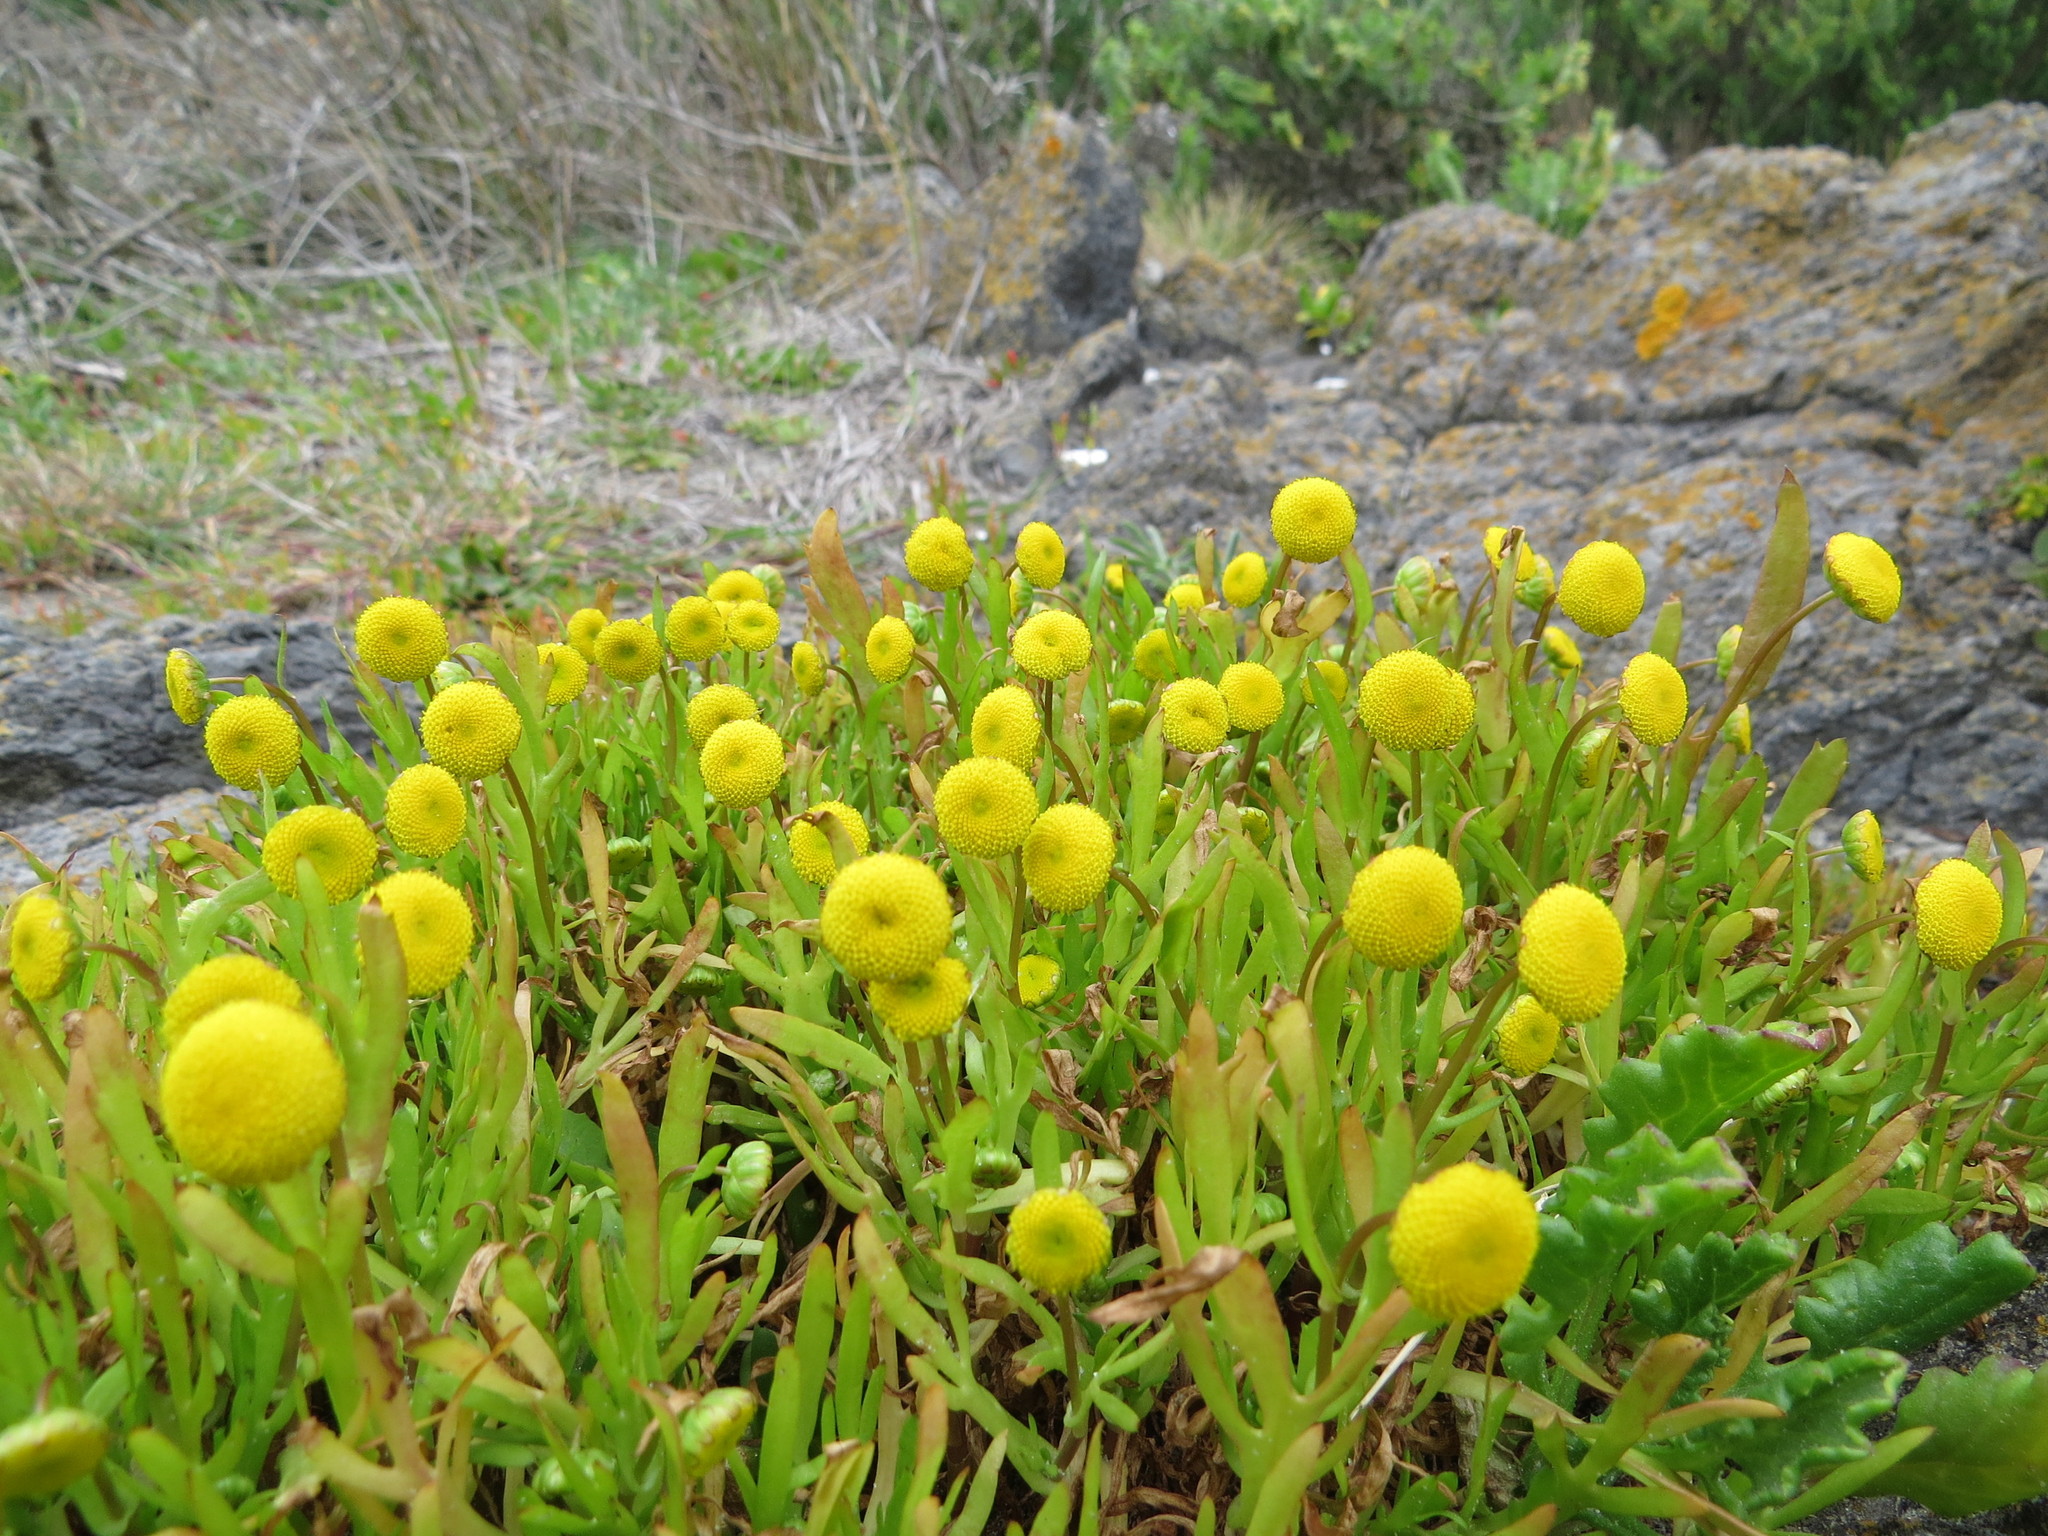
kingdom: Plantae
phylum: Tracheophyta
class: Magnoliopsida
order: Asterales
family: Asteraceae
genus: Cotula
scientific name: Cotula coronopifolia
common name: Buttonweed
